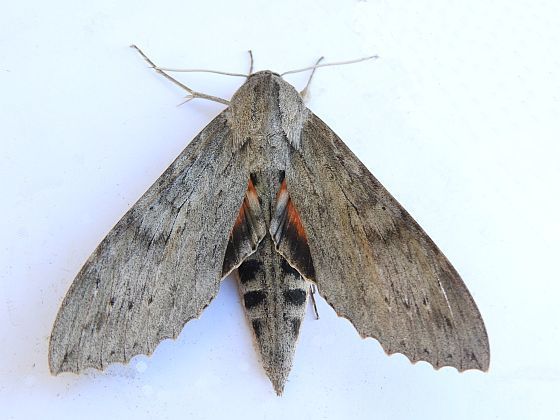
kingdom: Animalia
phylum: Arthropoda
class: Insecta
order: Lepidoptera
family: Sphingidae
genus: Erinnyis
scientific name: Erinnyis ello
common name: Ello sphinx
